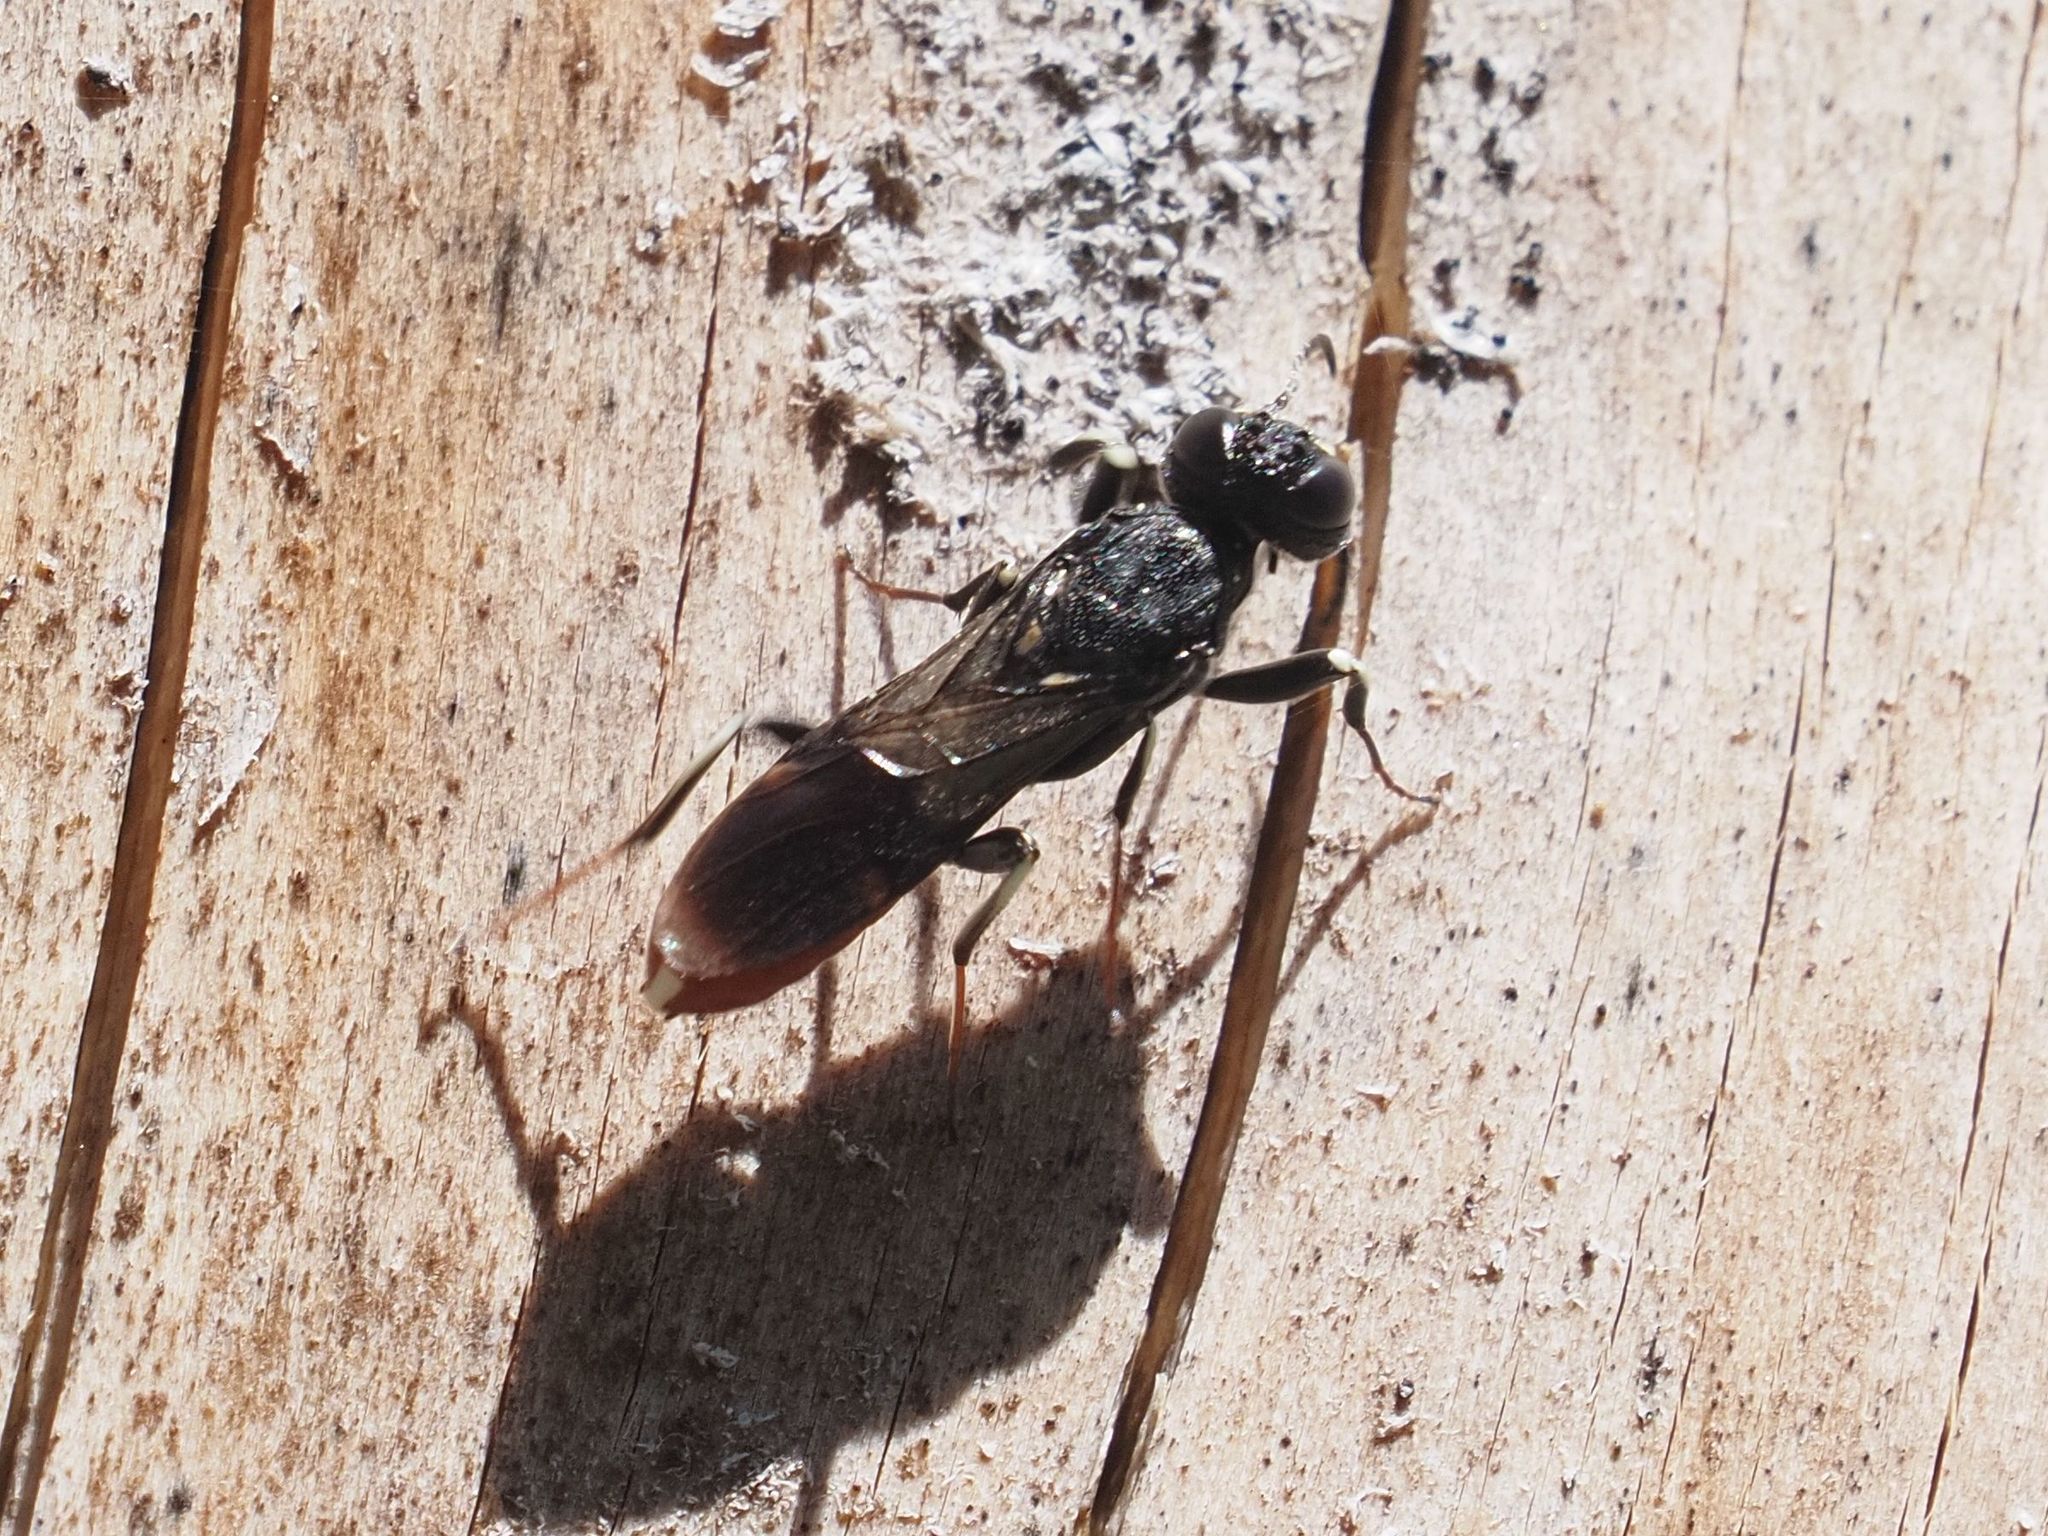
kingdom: Animalia
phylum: Arthropoda
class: Insecta
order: Hymenoptera
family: Orussusidae
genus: Orussus
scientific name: Orussus abietinus
